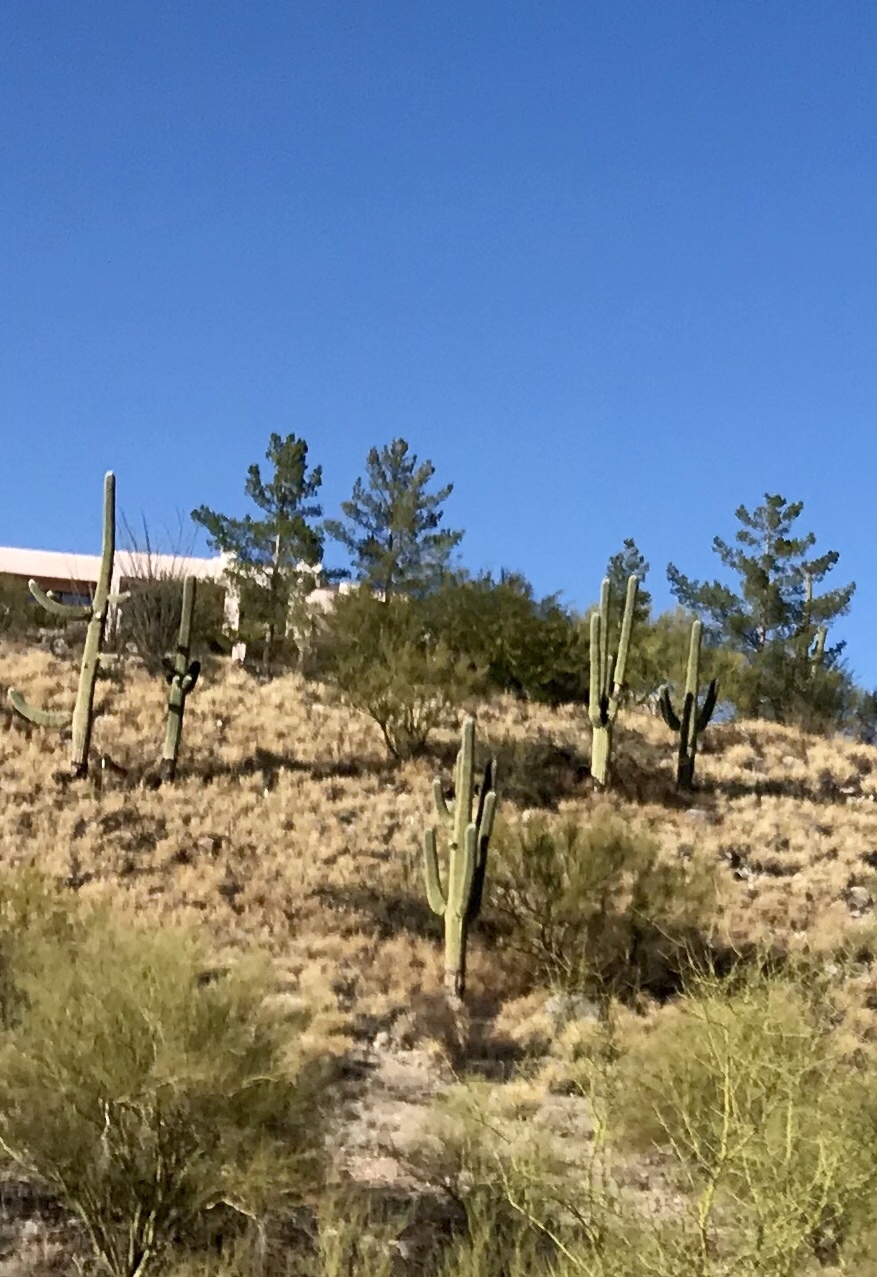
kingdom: Plantae
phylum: Tracheophyta
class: Magnoliopsida
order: Caryophyllales
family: Cactaceae
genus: Carnegiea
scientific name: Carnegiea gigantea
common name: Saguaro
